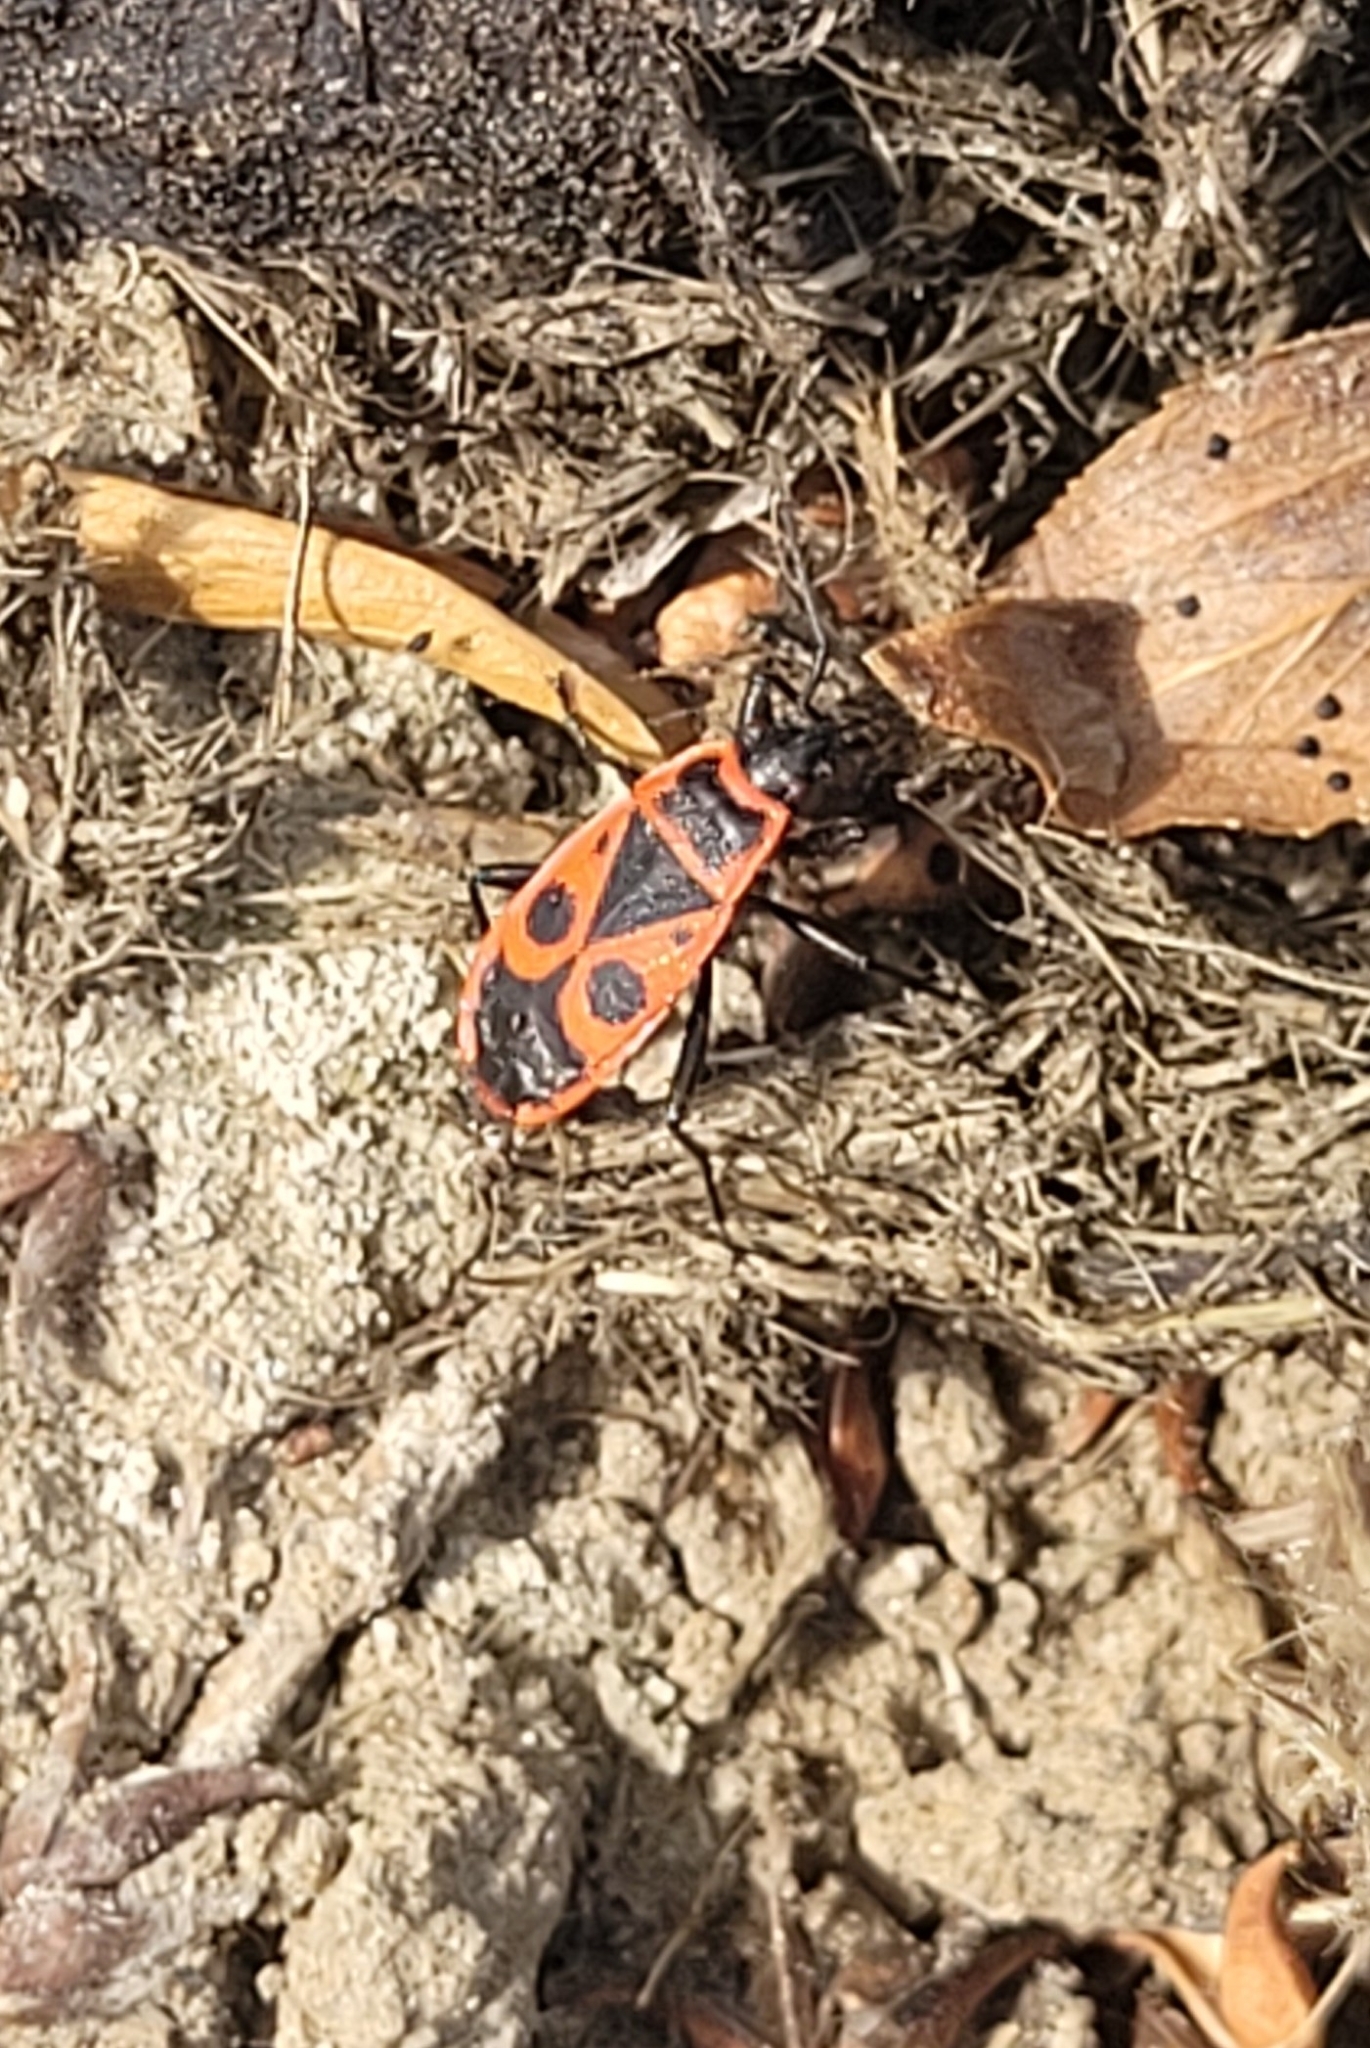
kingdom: Animalia
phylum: Arthropoda
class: Insecta
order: Hemiptera
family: Pyrrhocoridae
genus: Pyrrhocoris
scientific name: Pyrrhocoris apterus
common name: Firebug
